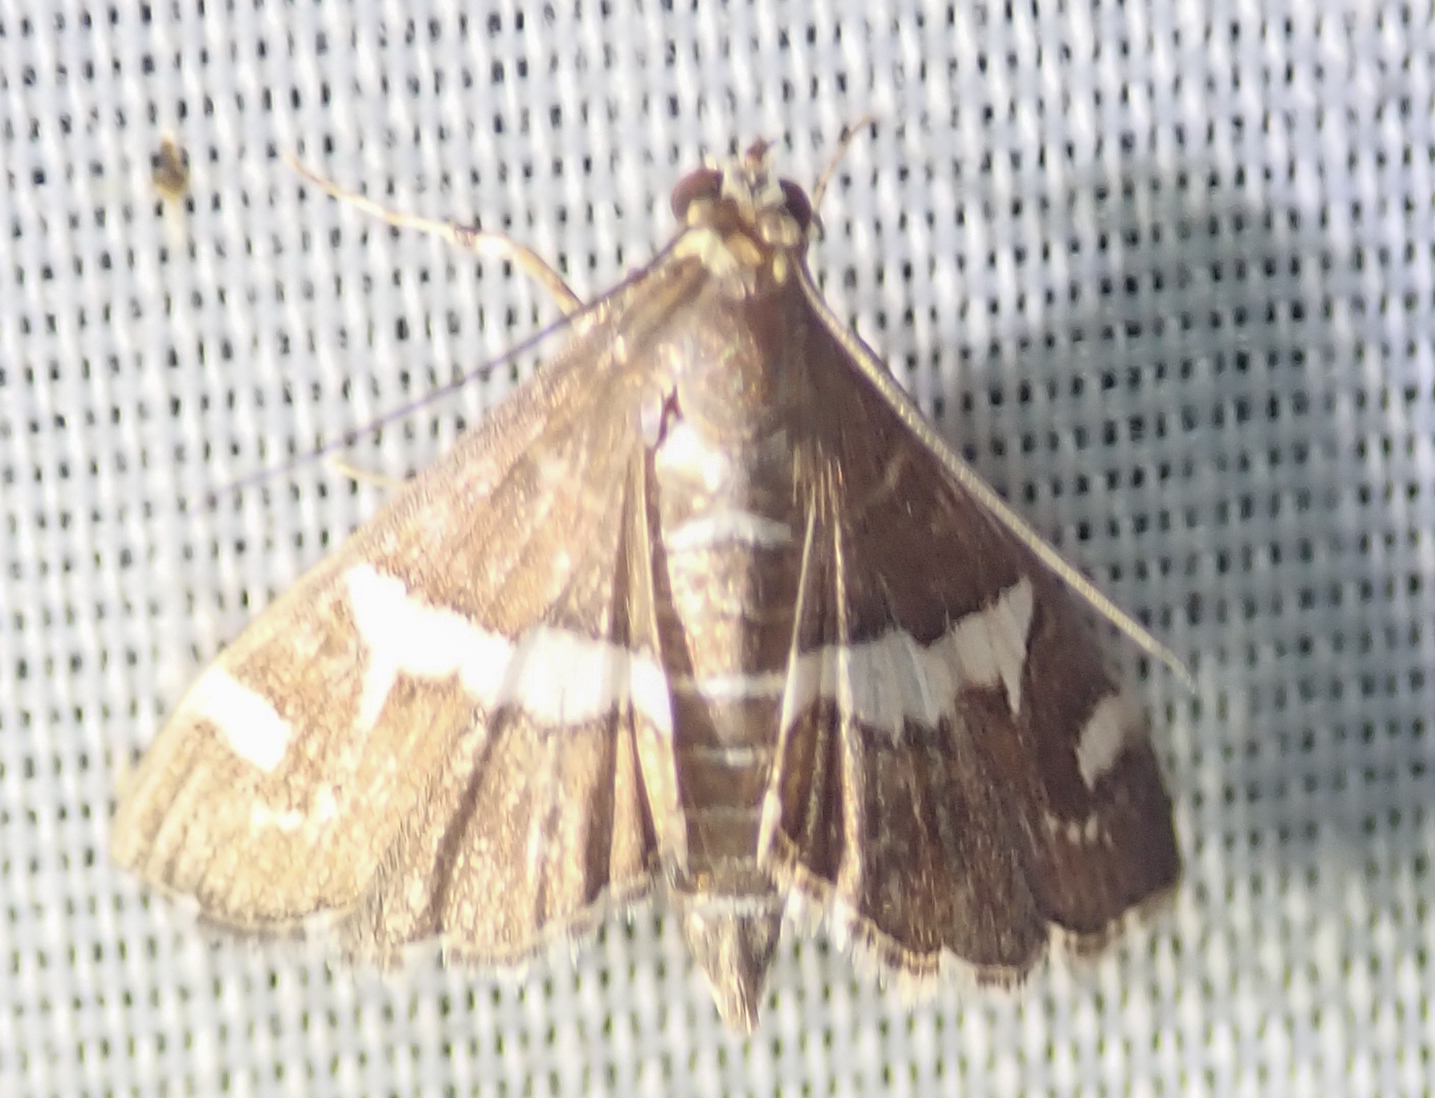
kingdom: Animalia
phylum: Arthropoda
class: Insecta
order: Lepidoptera
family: Crambidae
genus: Spoladea
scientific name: Spoladea recurvalis
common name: Beet webworm moth
